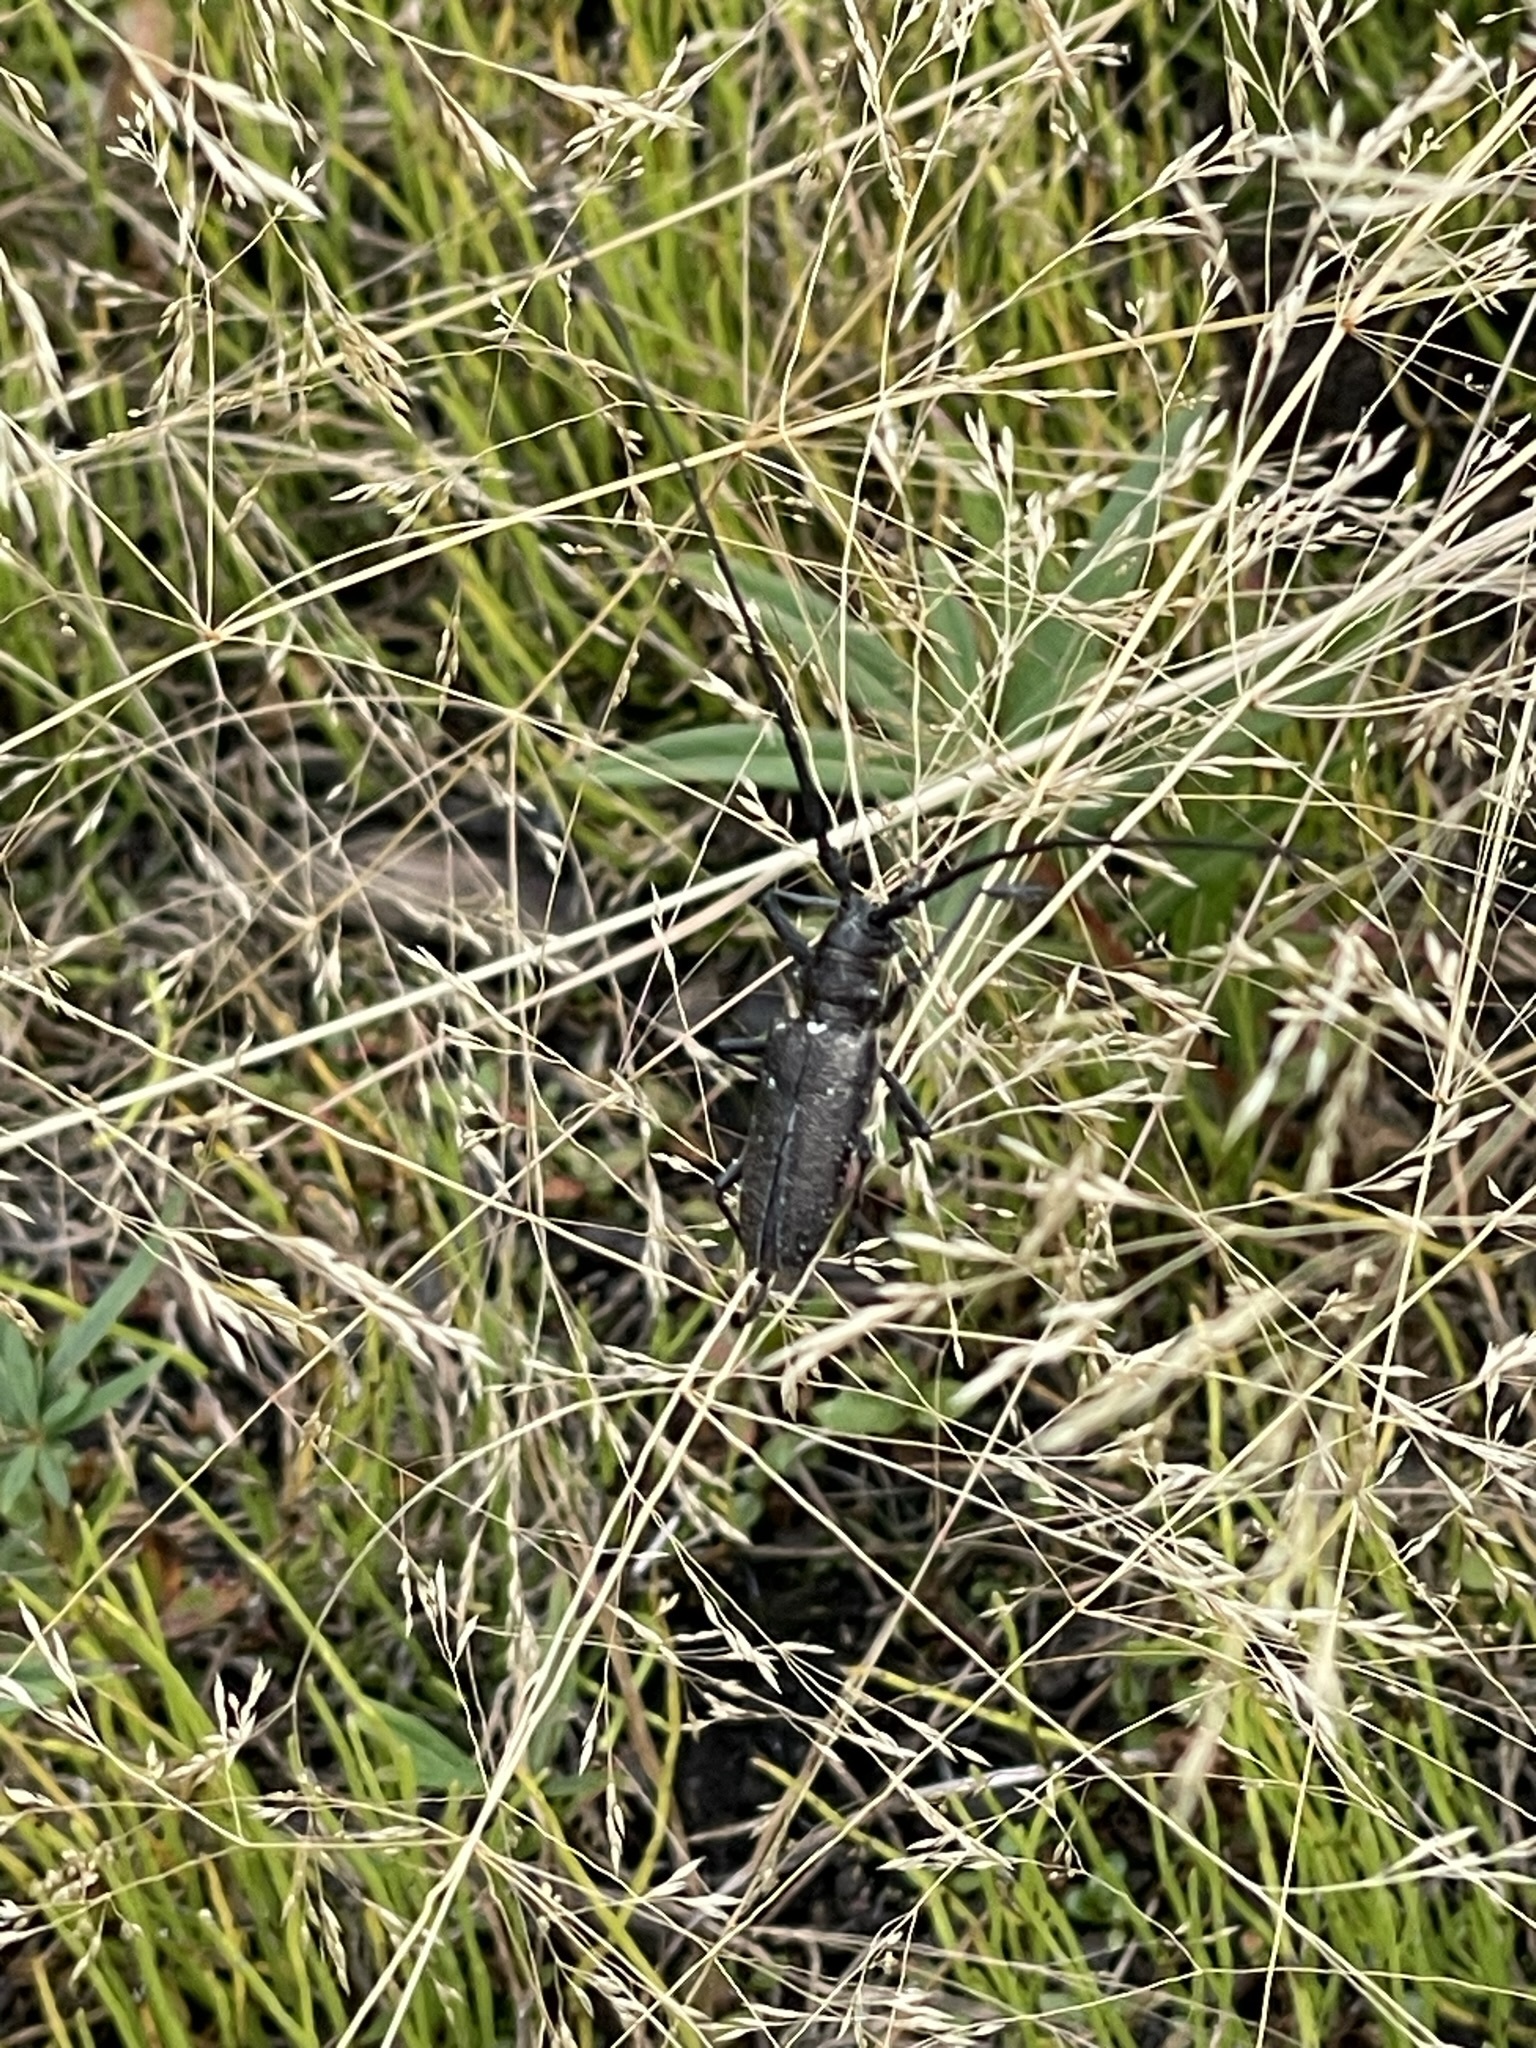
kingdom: Animalia
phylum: Arthropoda
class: Insecta
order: Coleoptera
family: Cerambycidae
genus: Monochamus
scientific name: Monochamus scutellatus
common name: White-spotted sawyer beetle
